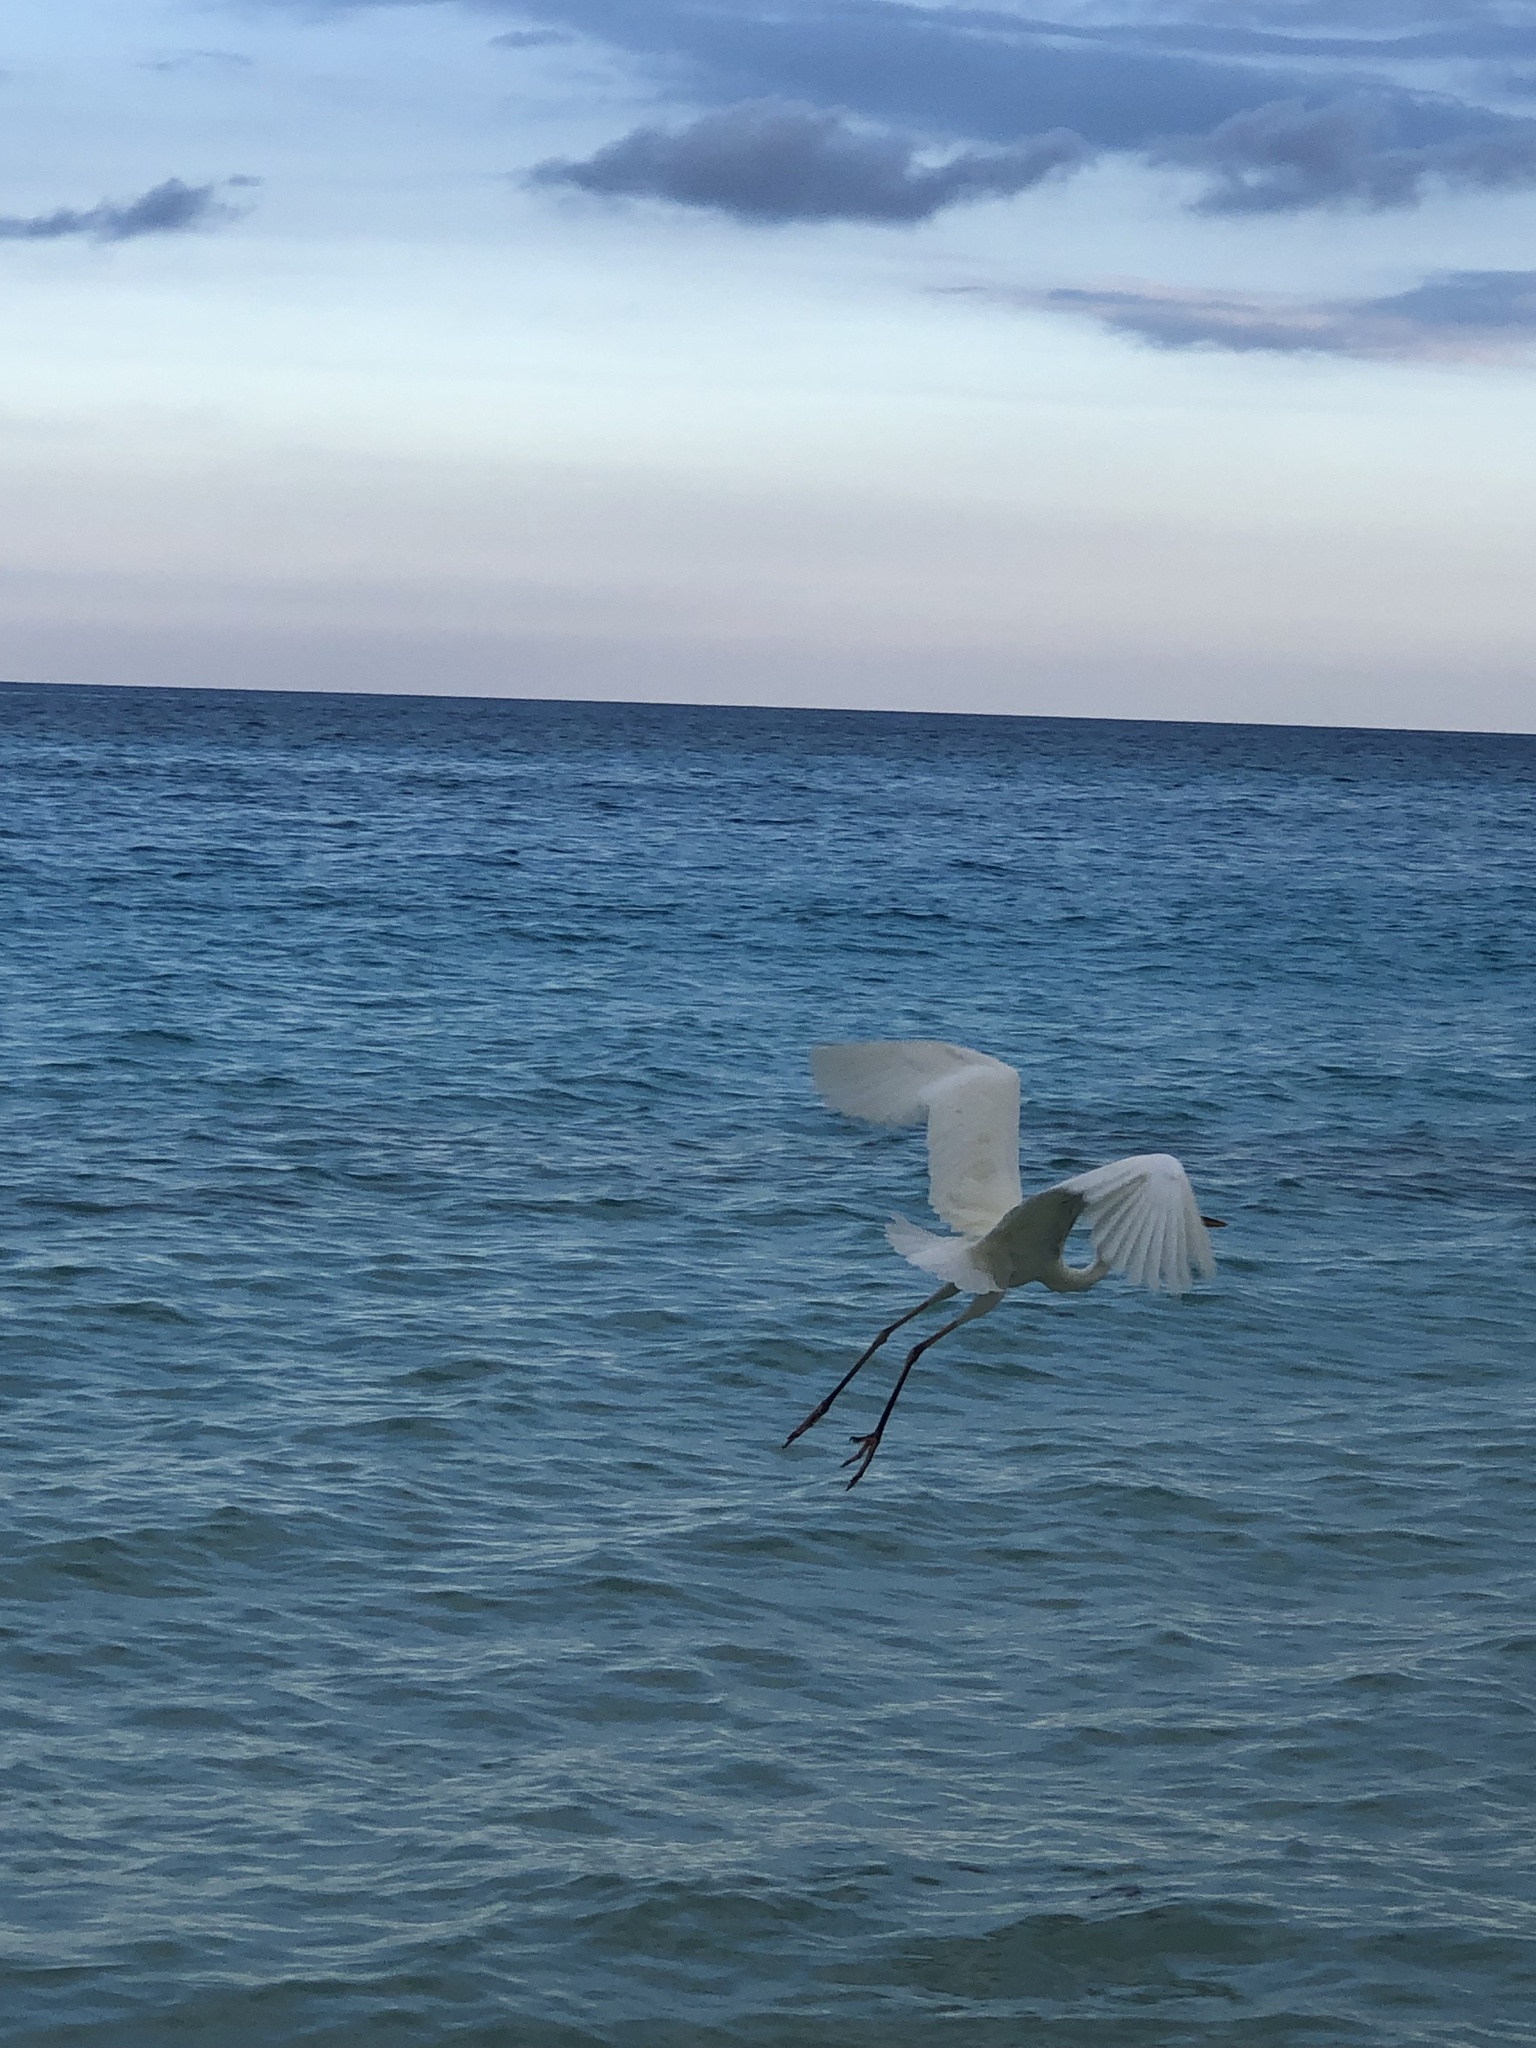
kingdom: Animalia
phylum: Chordata
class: Aves
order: Pelecaniformes
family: Ardeidae
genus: Ardea
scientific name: Ardea herodias
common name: Great blue heron
